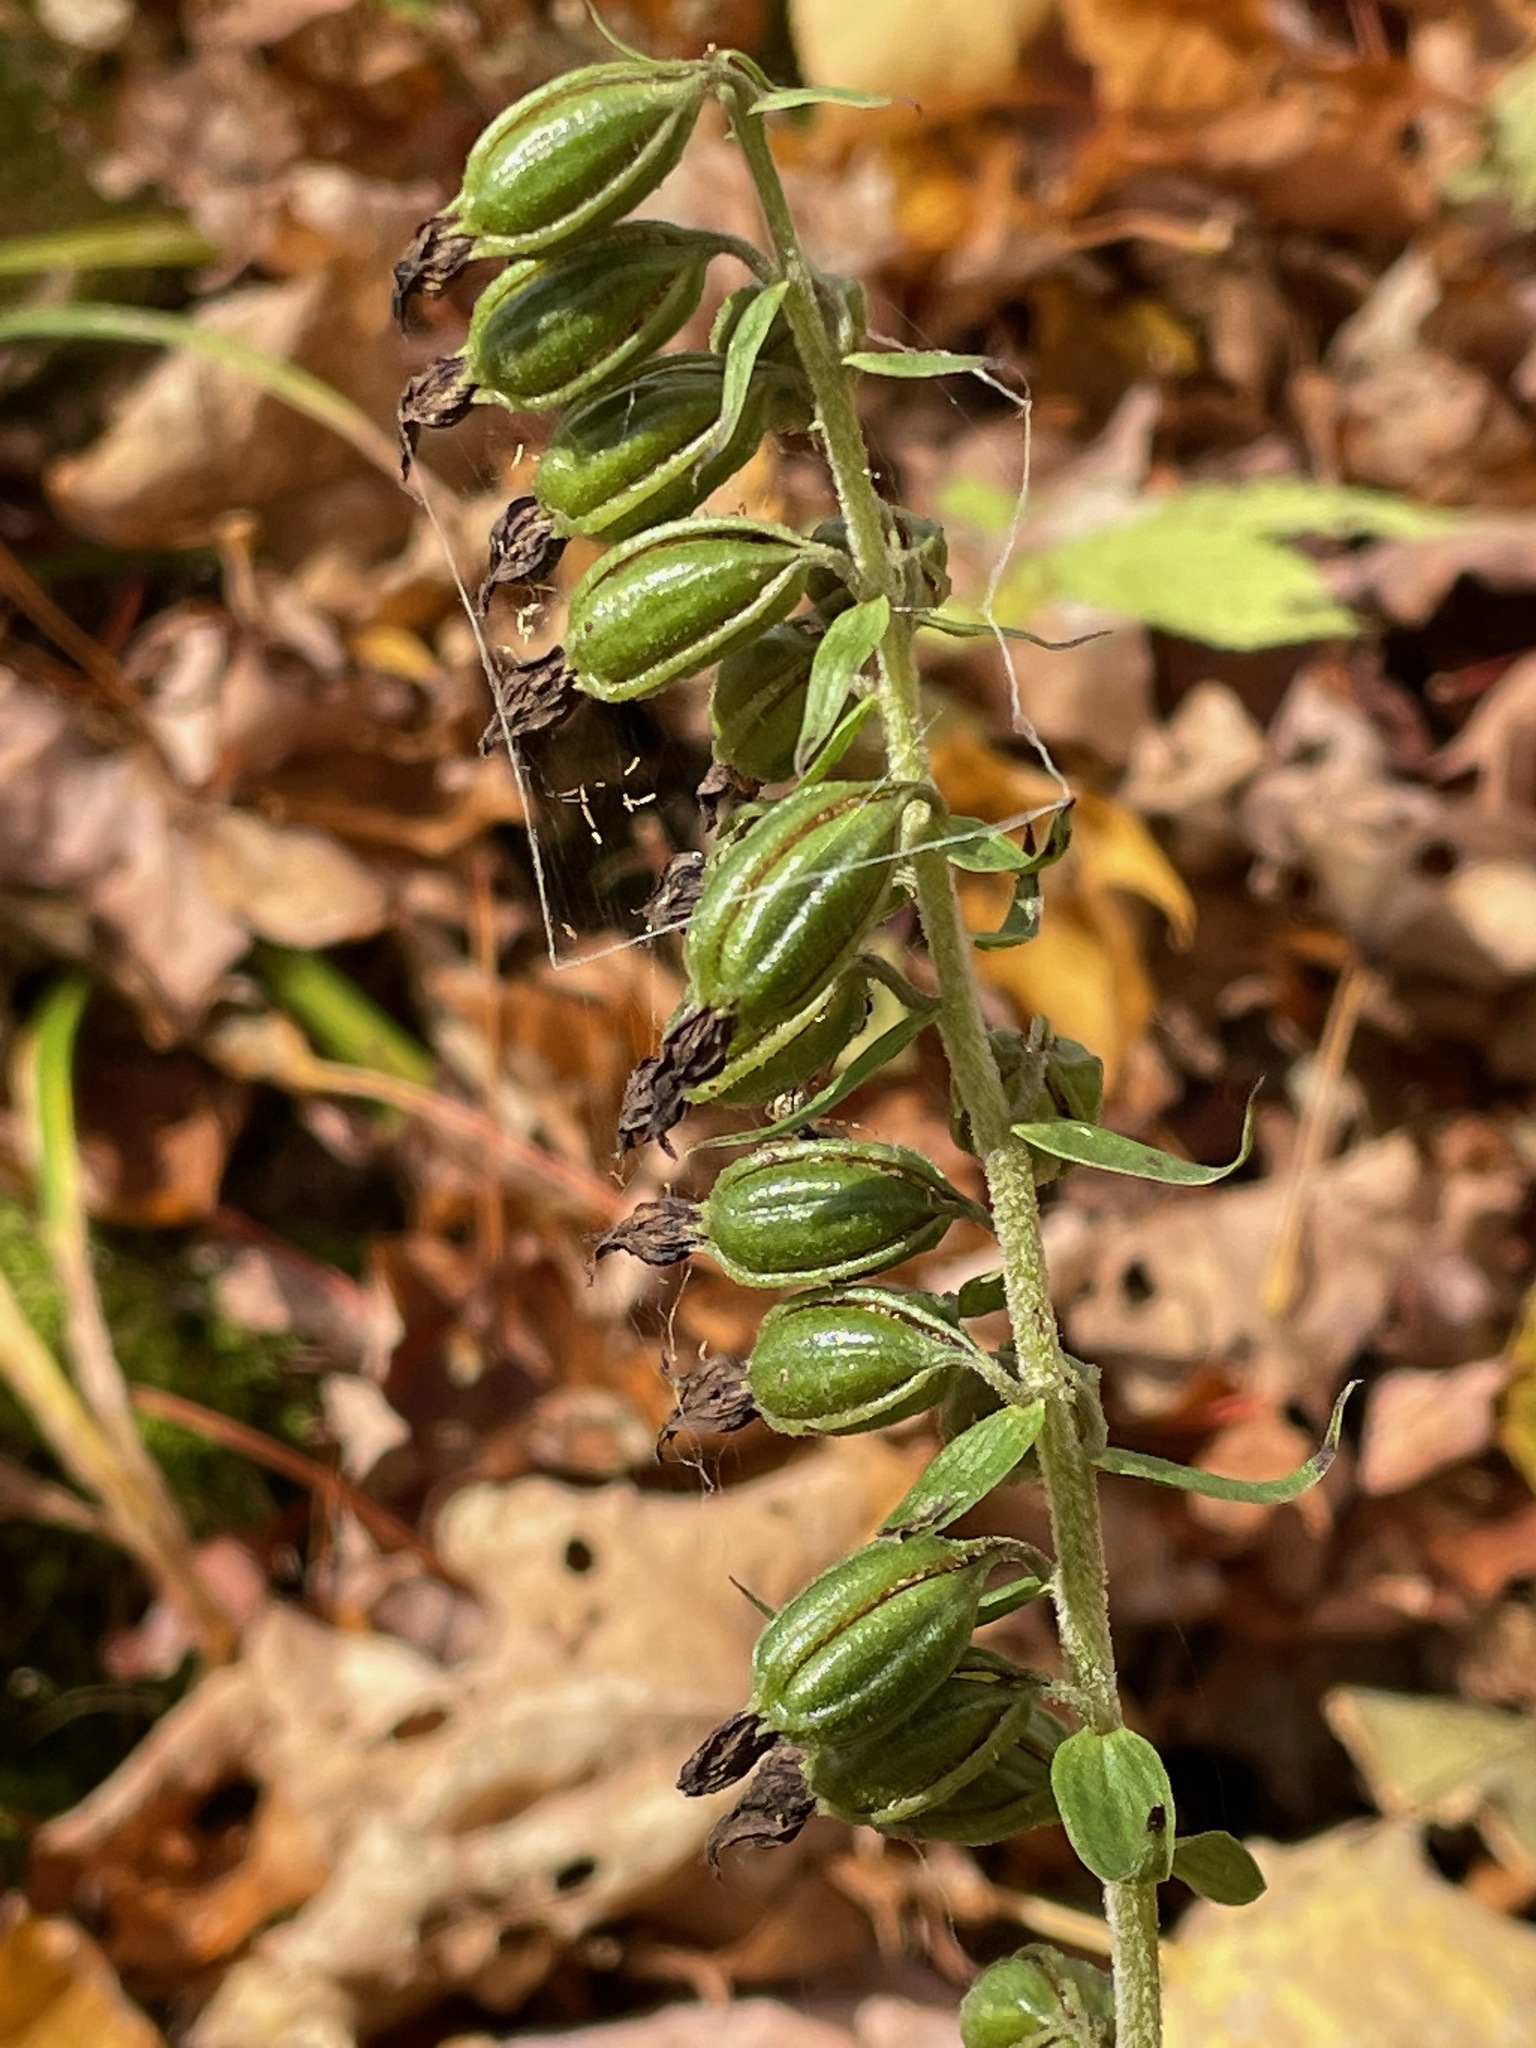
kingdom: Plantae
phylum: Tracheophyta
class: Liliopsida
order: Asparagales
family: Orchidaceae
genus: Epipactis
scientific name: Epipactis helleborine
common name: Broad-leaved helleborine
